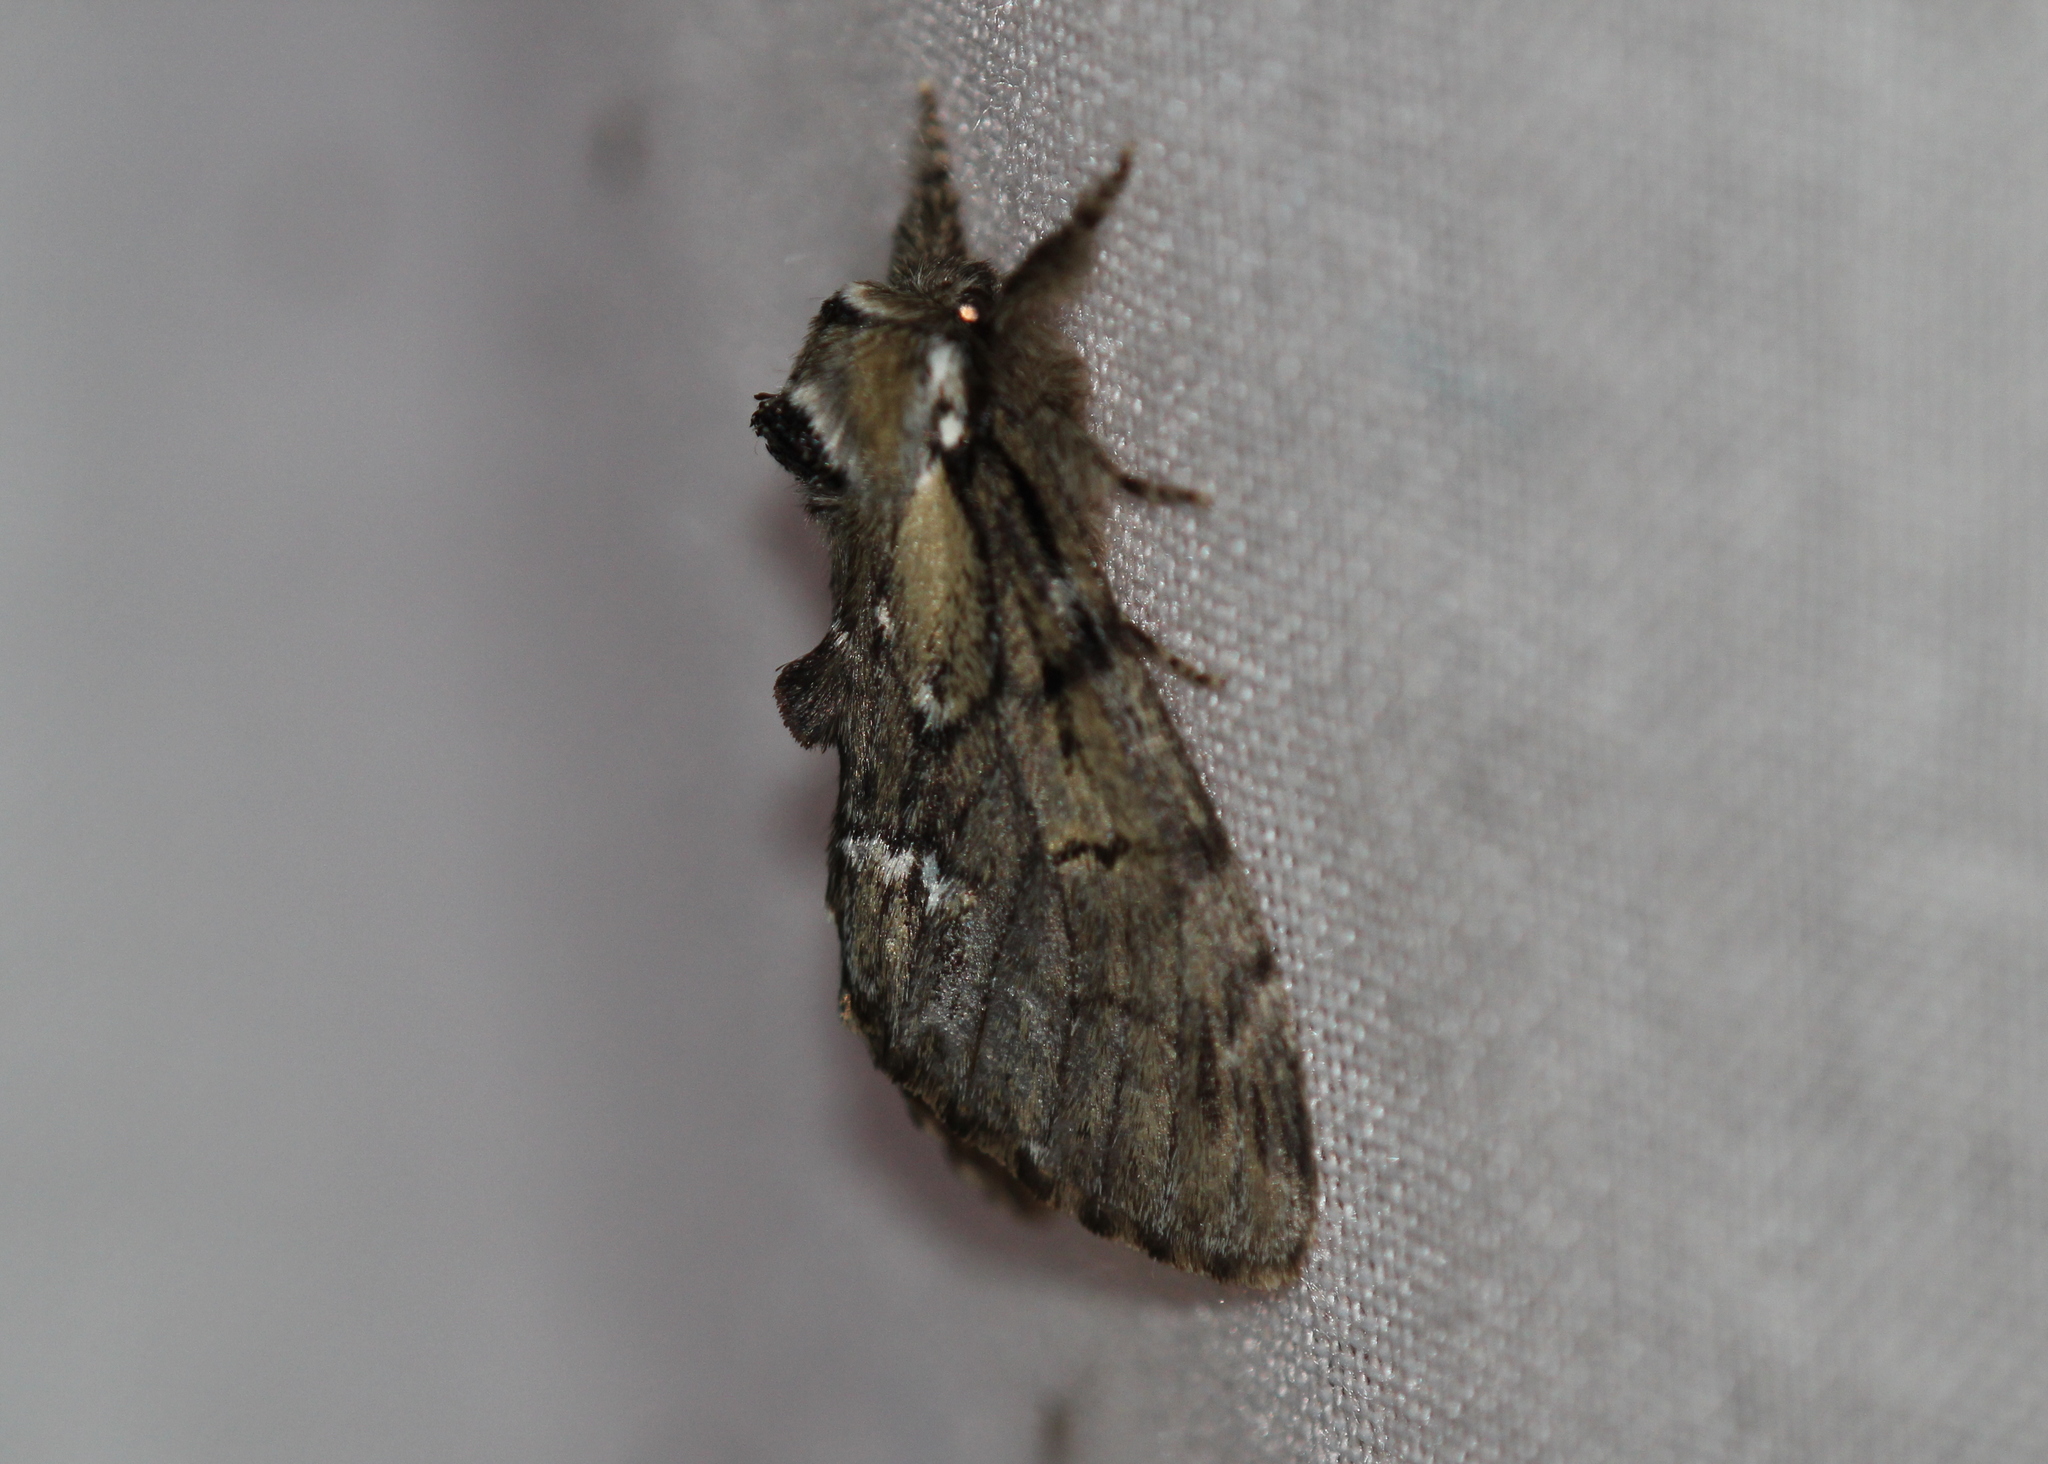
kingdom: Animalia
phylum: Arthropoda
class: Insecta
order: Lepidoptera
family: Notodontidae
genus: Paraeschra
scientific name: Paraeschra georgica
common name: Georgian prominent
